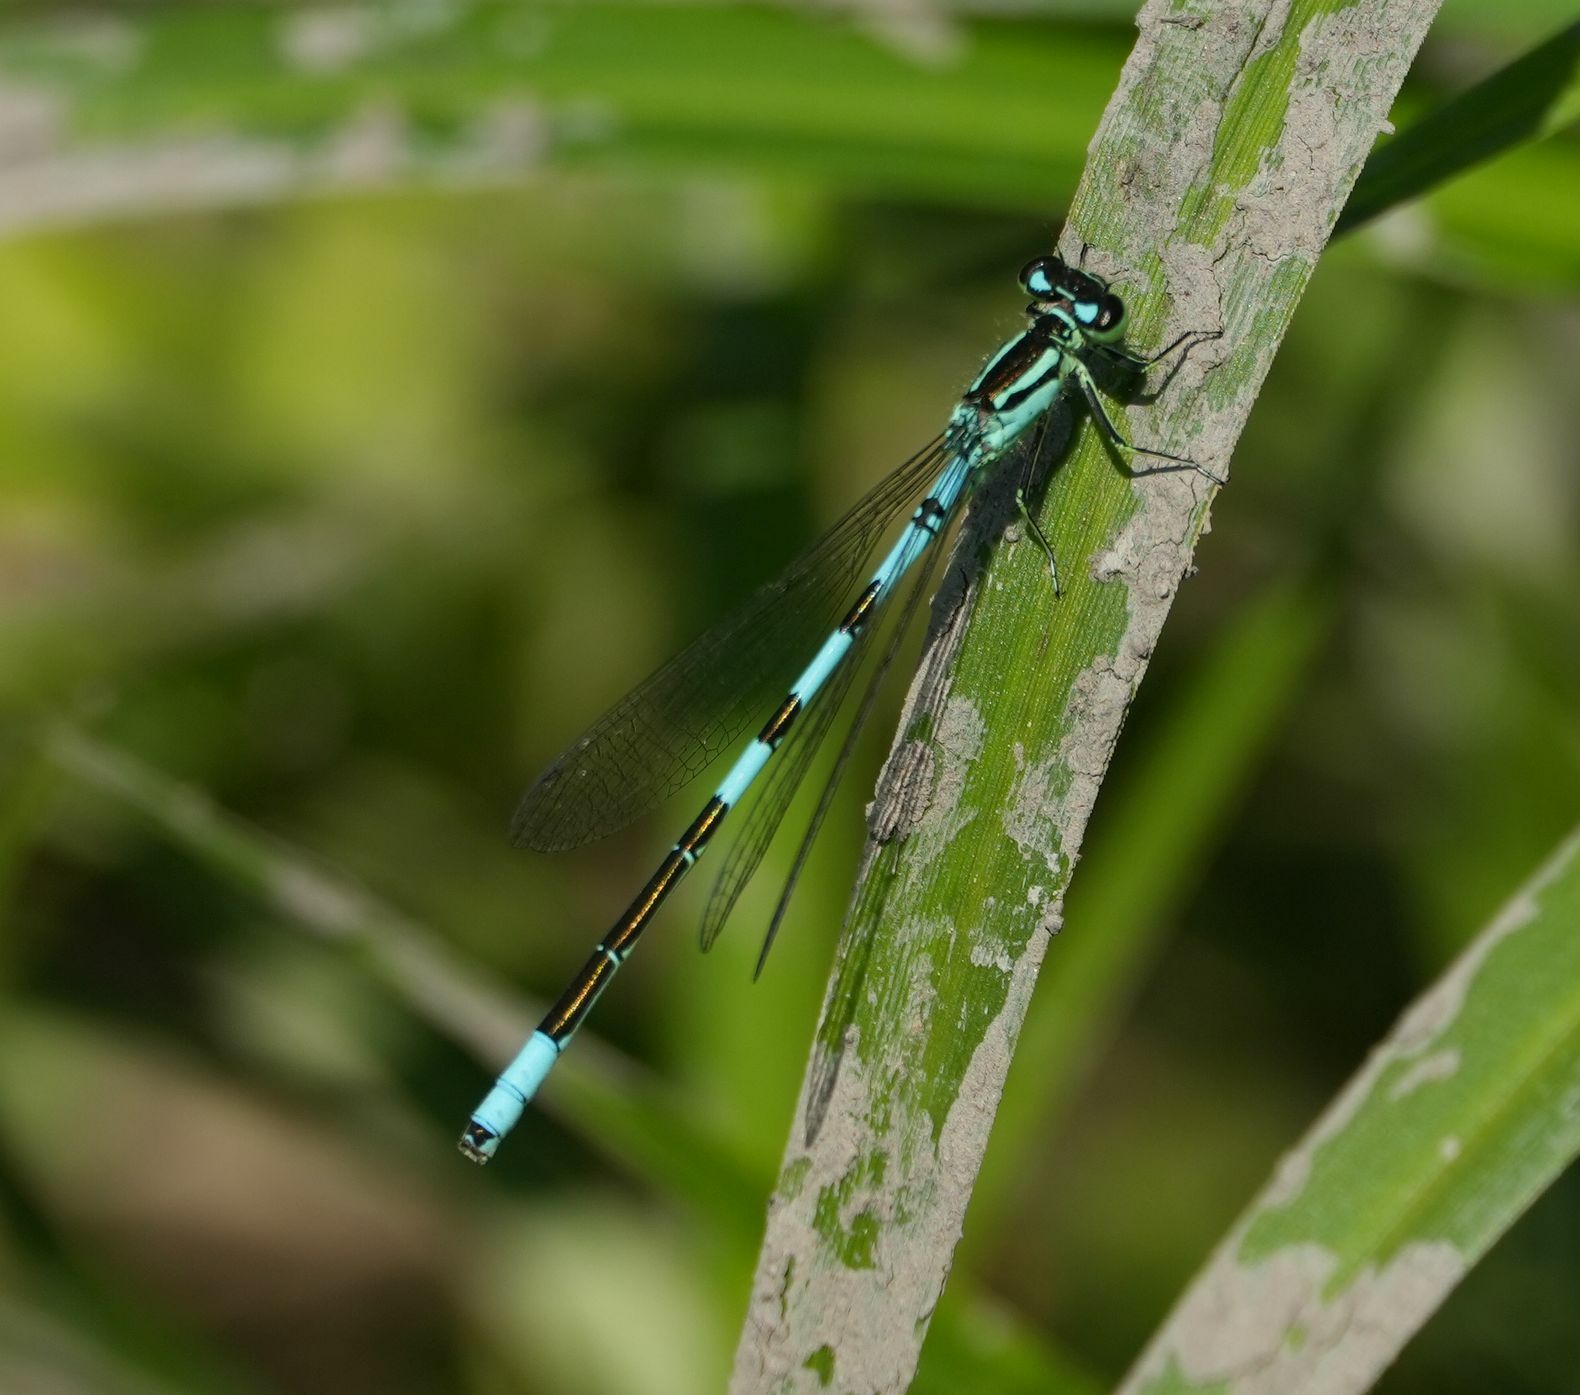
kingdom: Animalia
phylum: Arthropoda
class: Insecta
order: Odonata
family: Coenagrionidae
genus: Coenagrion
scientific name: Coenagrion resolutum
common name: Taiga bluet
